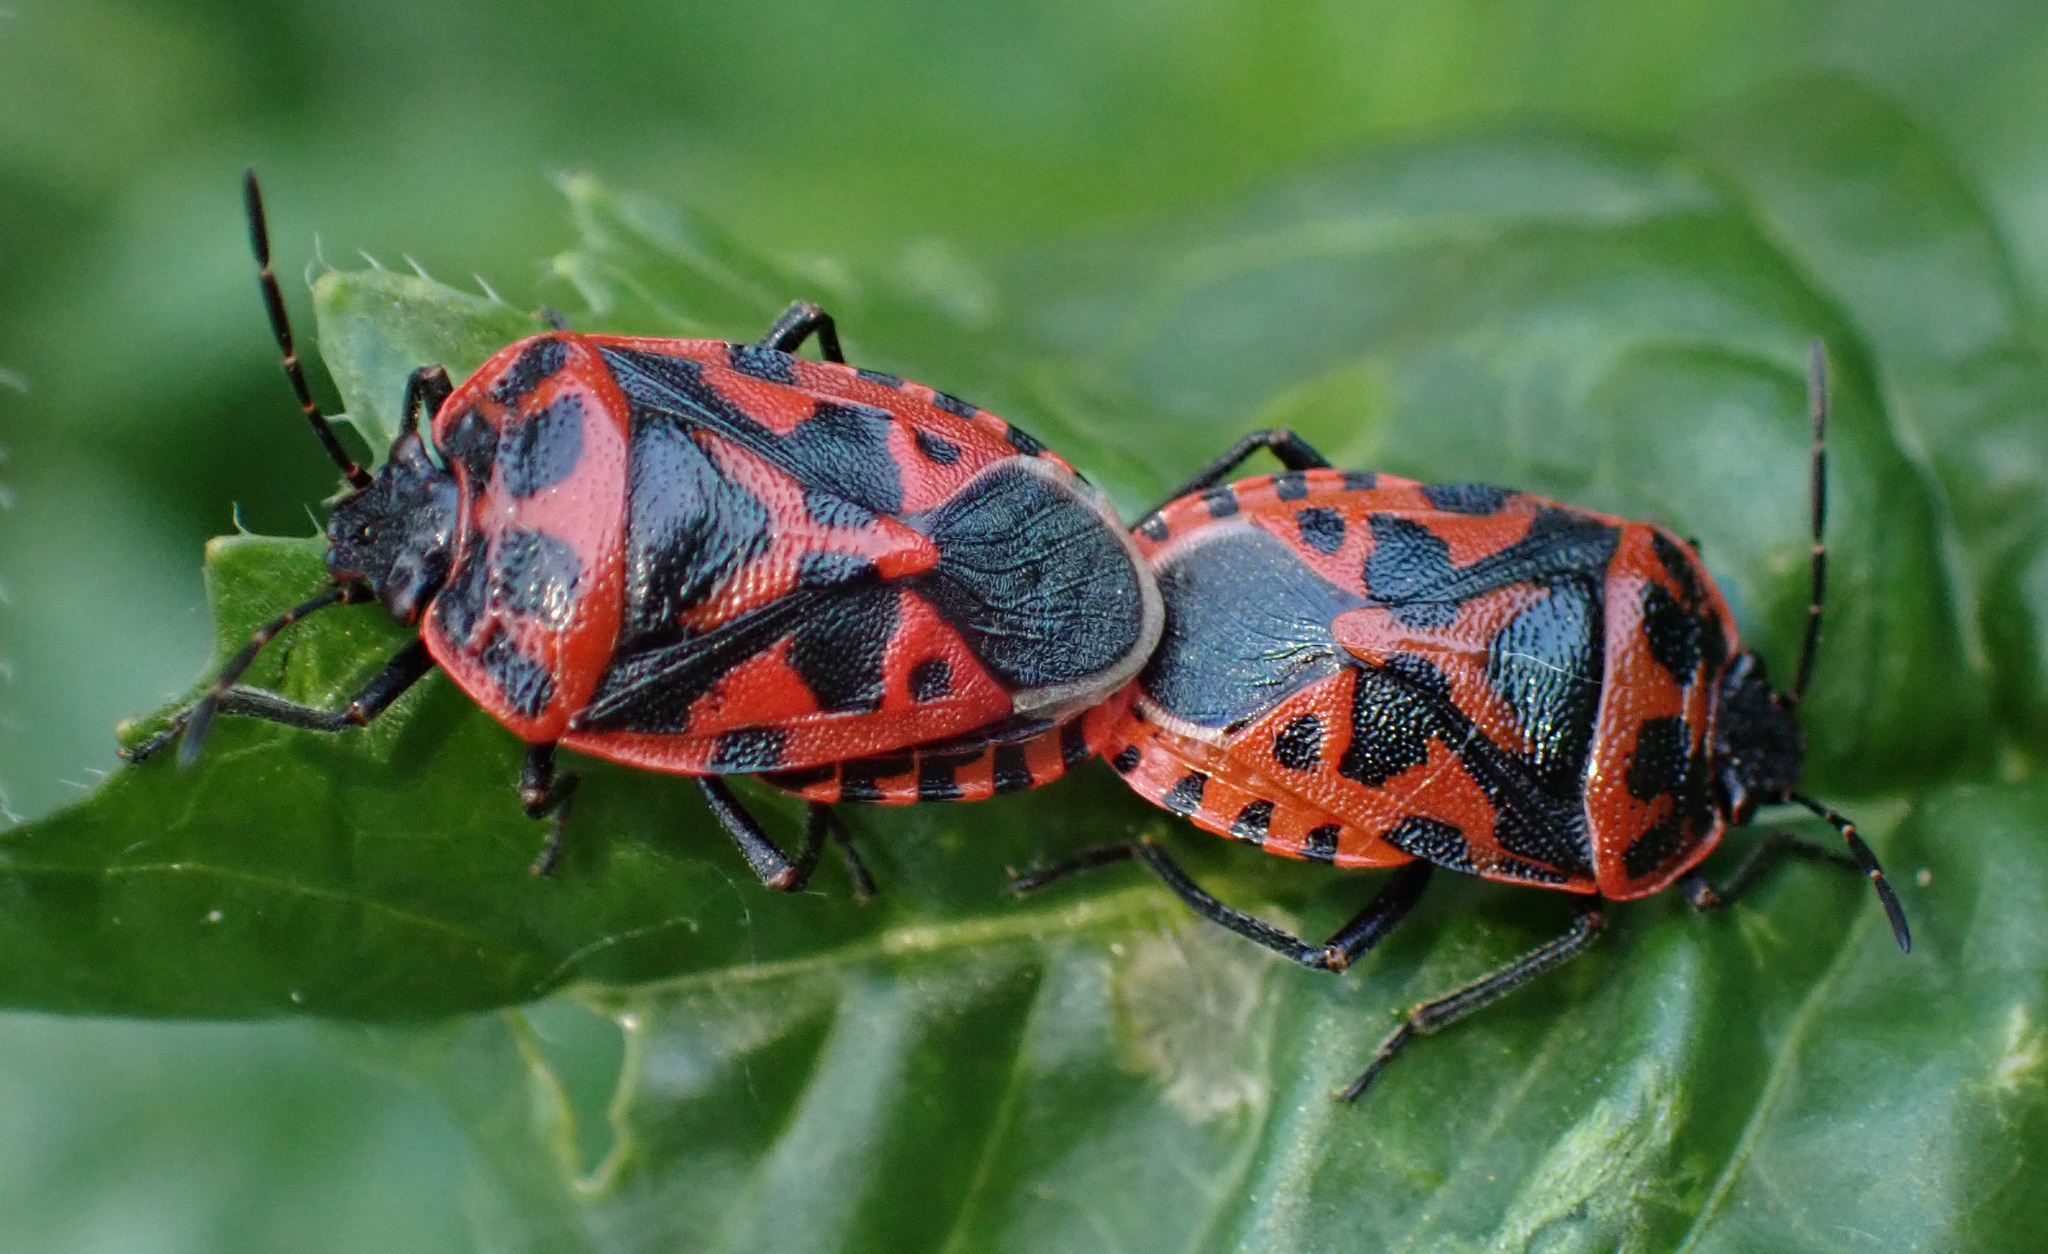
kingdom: Animalia
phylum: Arthropoda
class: Insecta
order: Hemiptera
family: Pentatomidae
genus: Eurydema
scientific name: Eurydema ventralis
